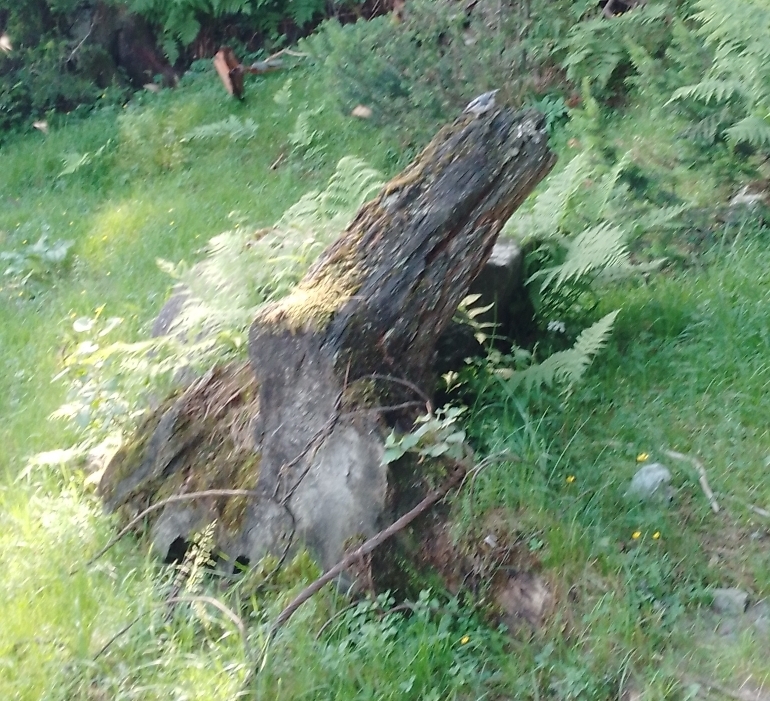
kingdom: Animalia
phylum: Chordata
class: Aves
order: Passeriformes
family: Sittidae
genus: Sitta
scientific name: Sitta europaea
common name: Eurasian nuthatch
